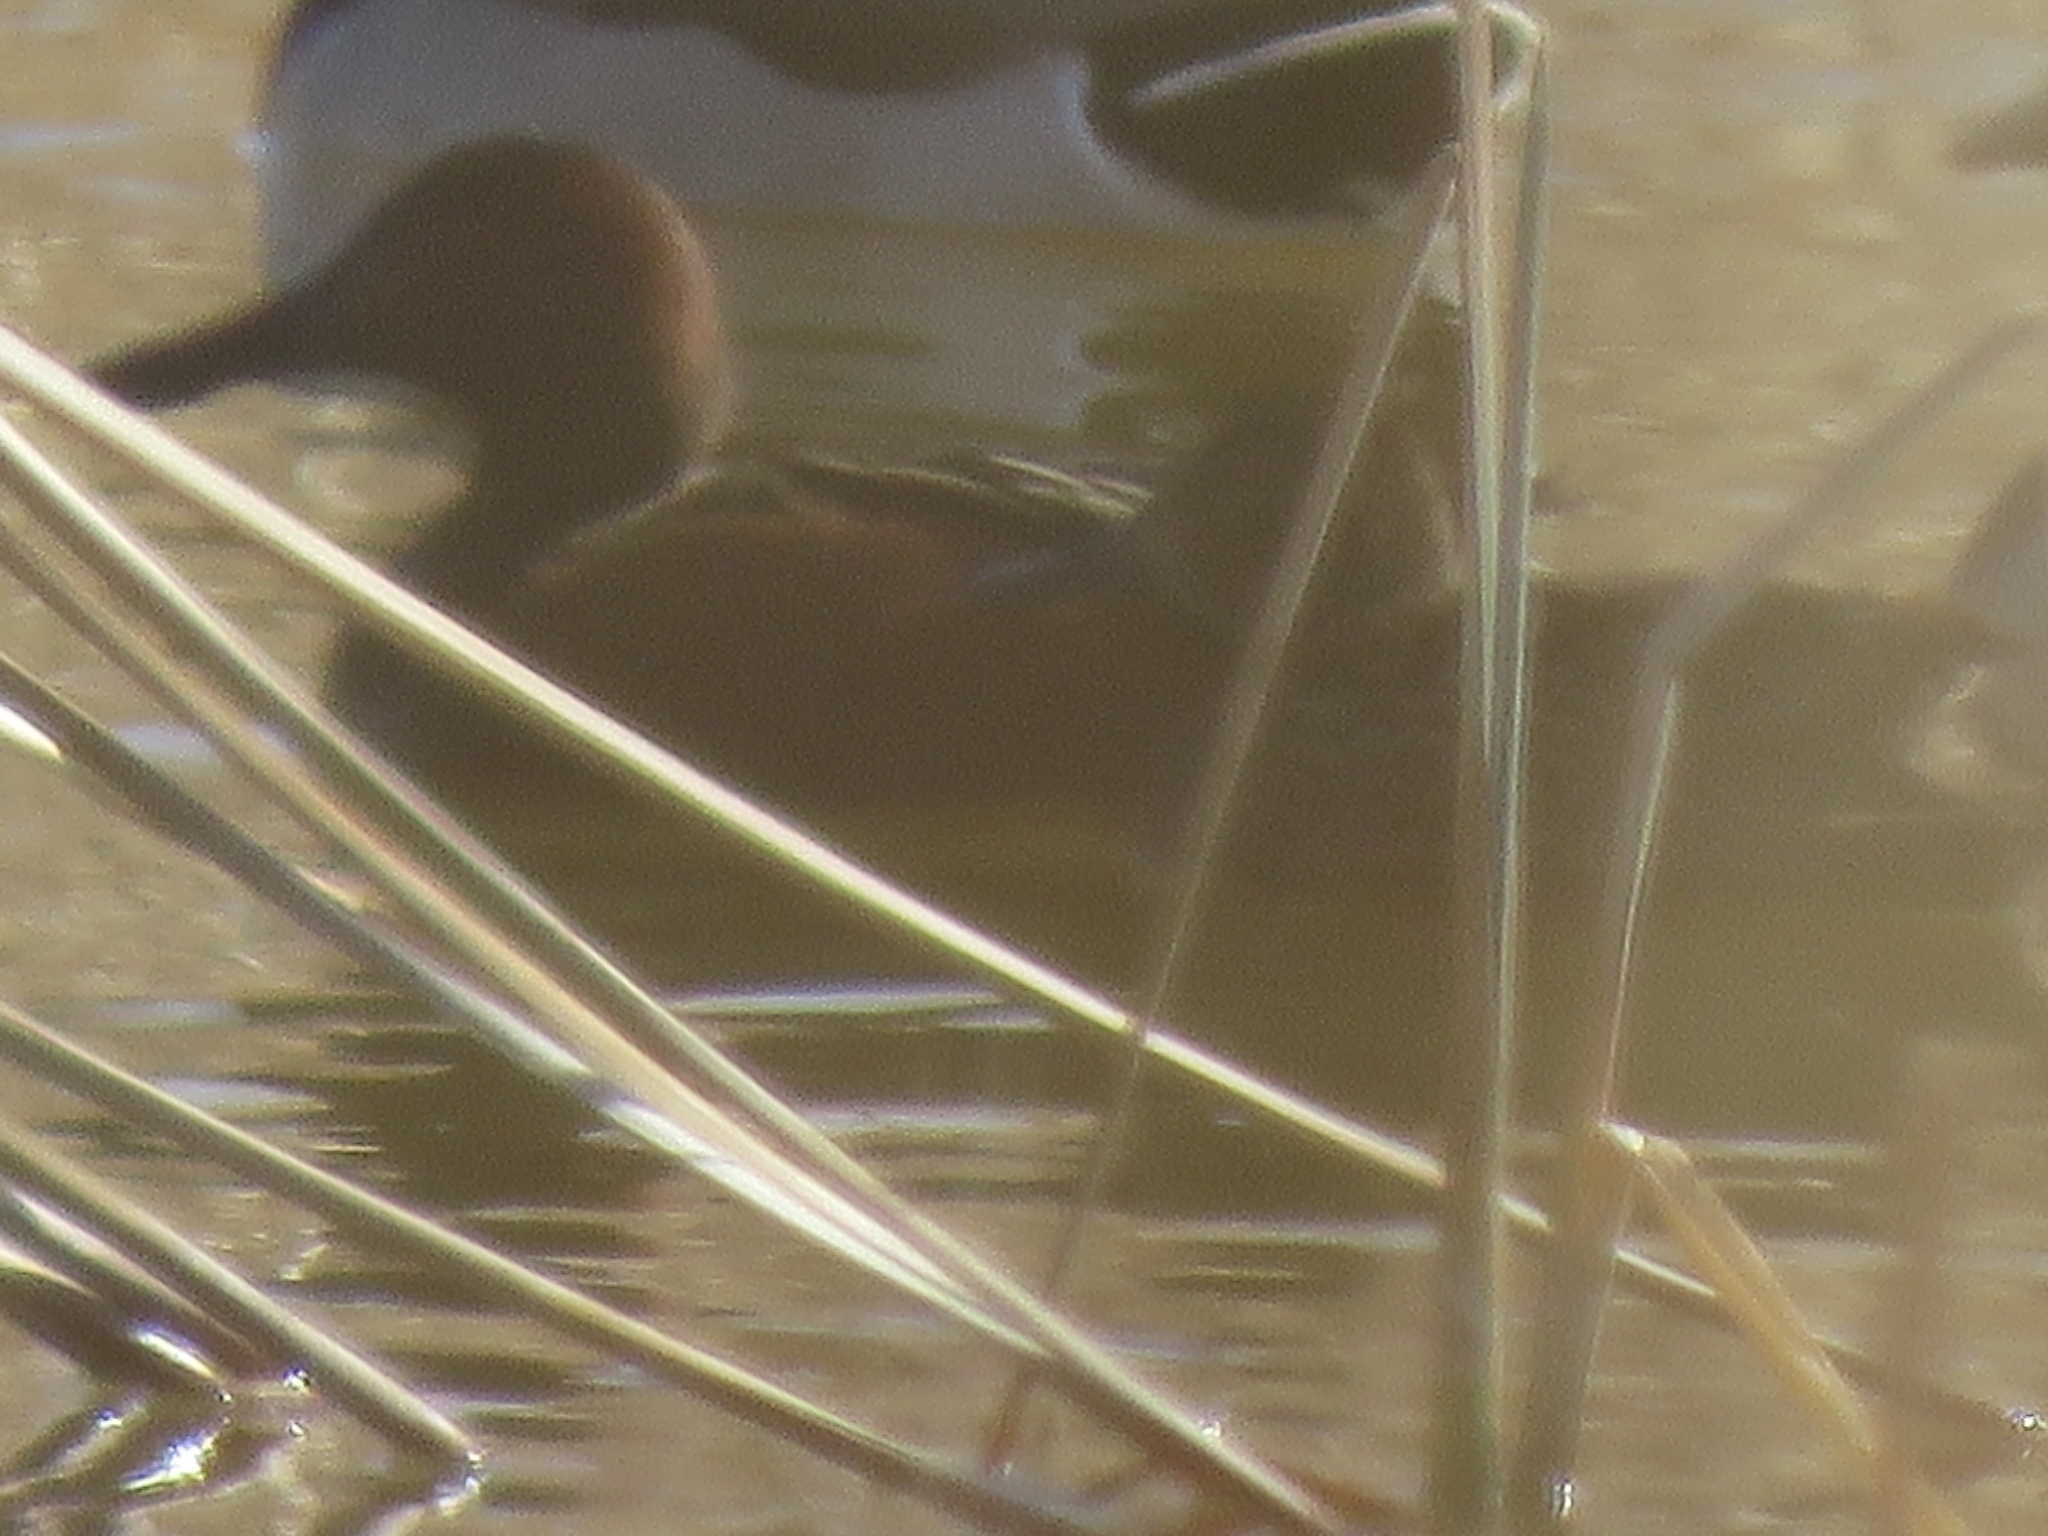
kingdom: Animalia
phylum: Chordata
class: Aves
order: Anseriformes
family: Anatidae
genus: Spatula
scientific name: Spatula cyanoptera
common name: Cinnamon teal
